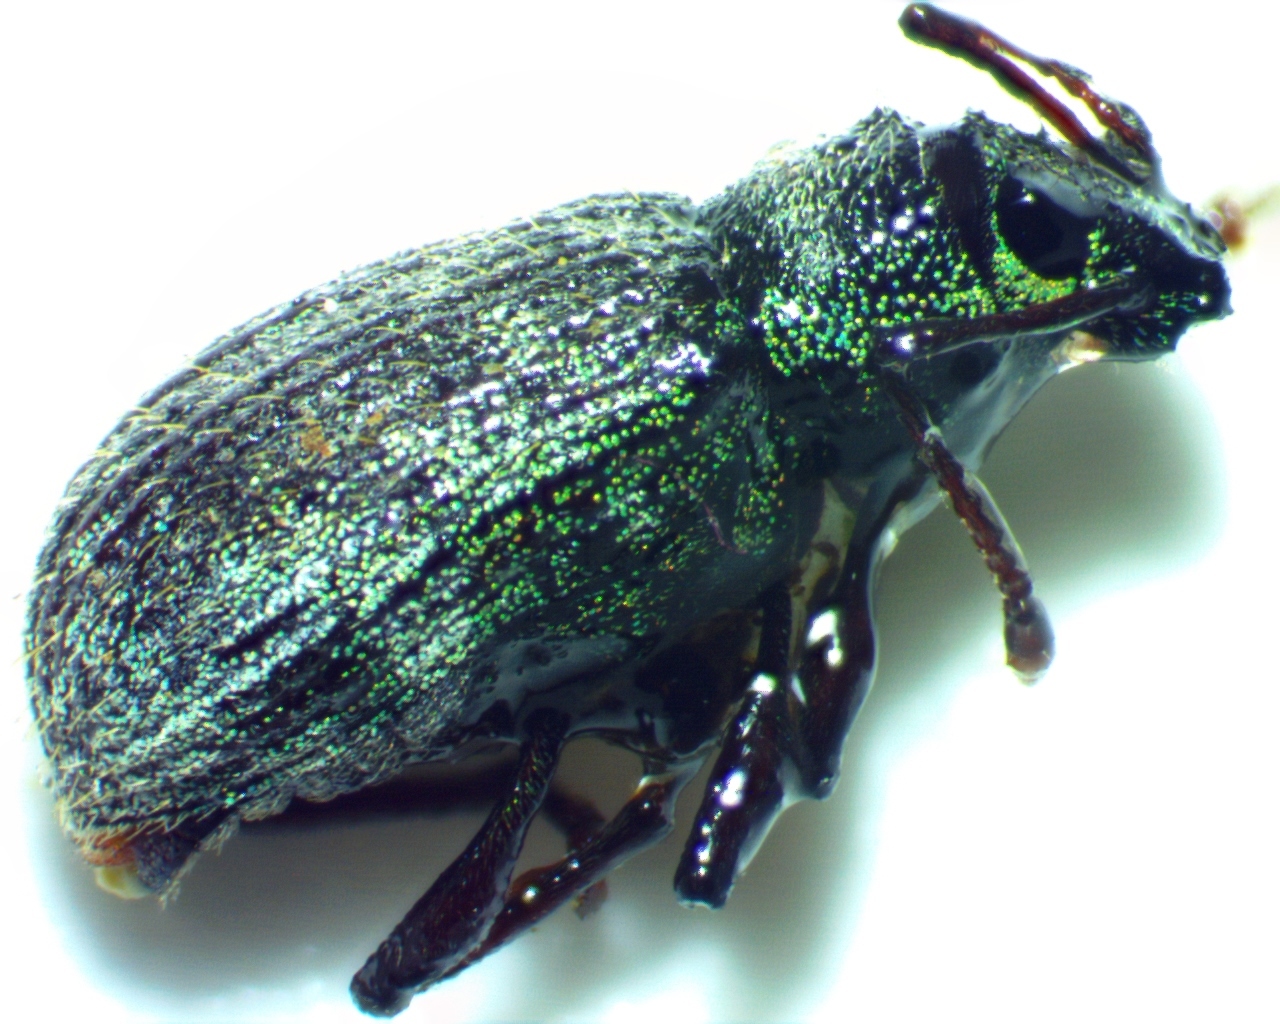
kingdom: Animalia
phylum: Arthropoda
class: Insecta
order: Coleoptera
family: Curculionidae
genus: Cyrtepistomus
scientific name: Cyrtepistomus castaneus
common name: Weevil
